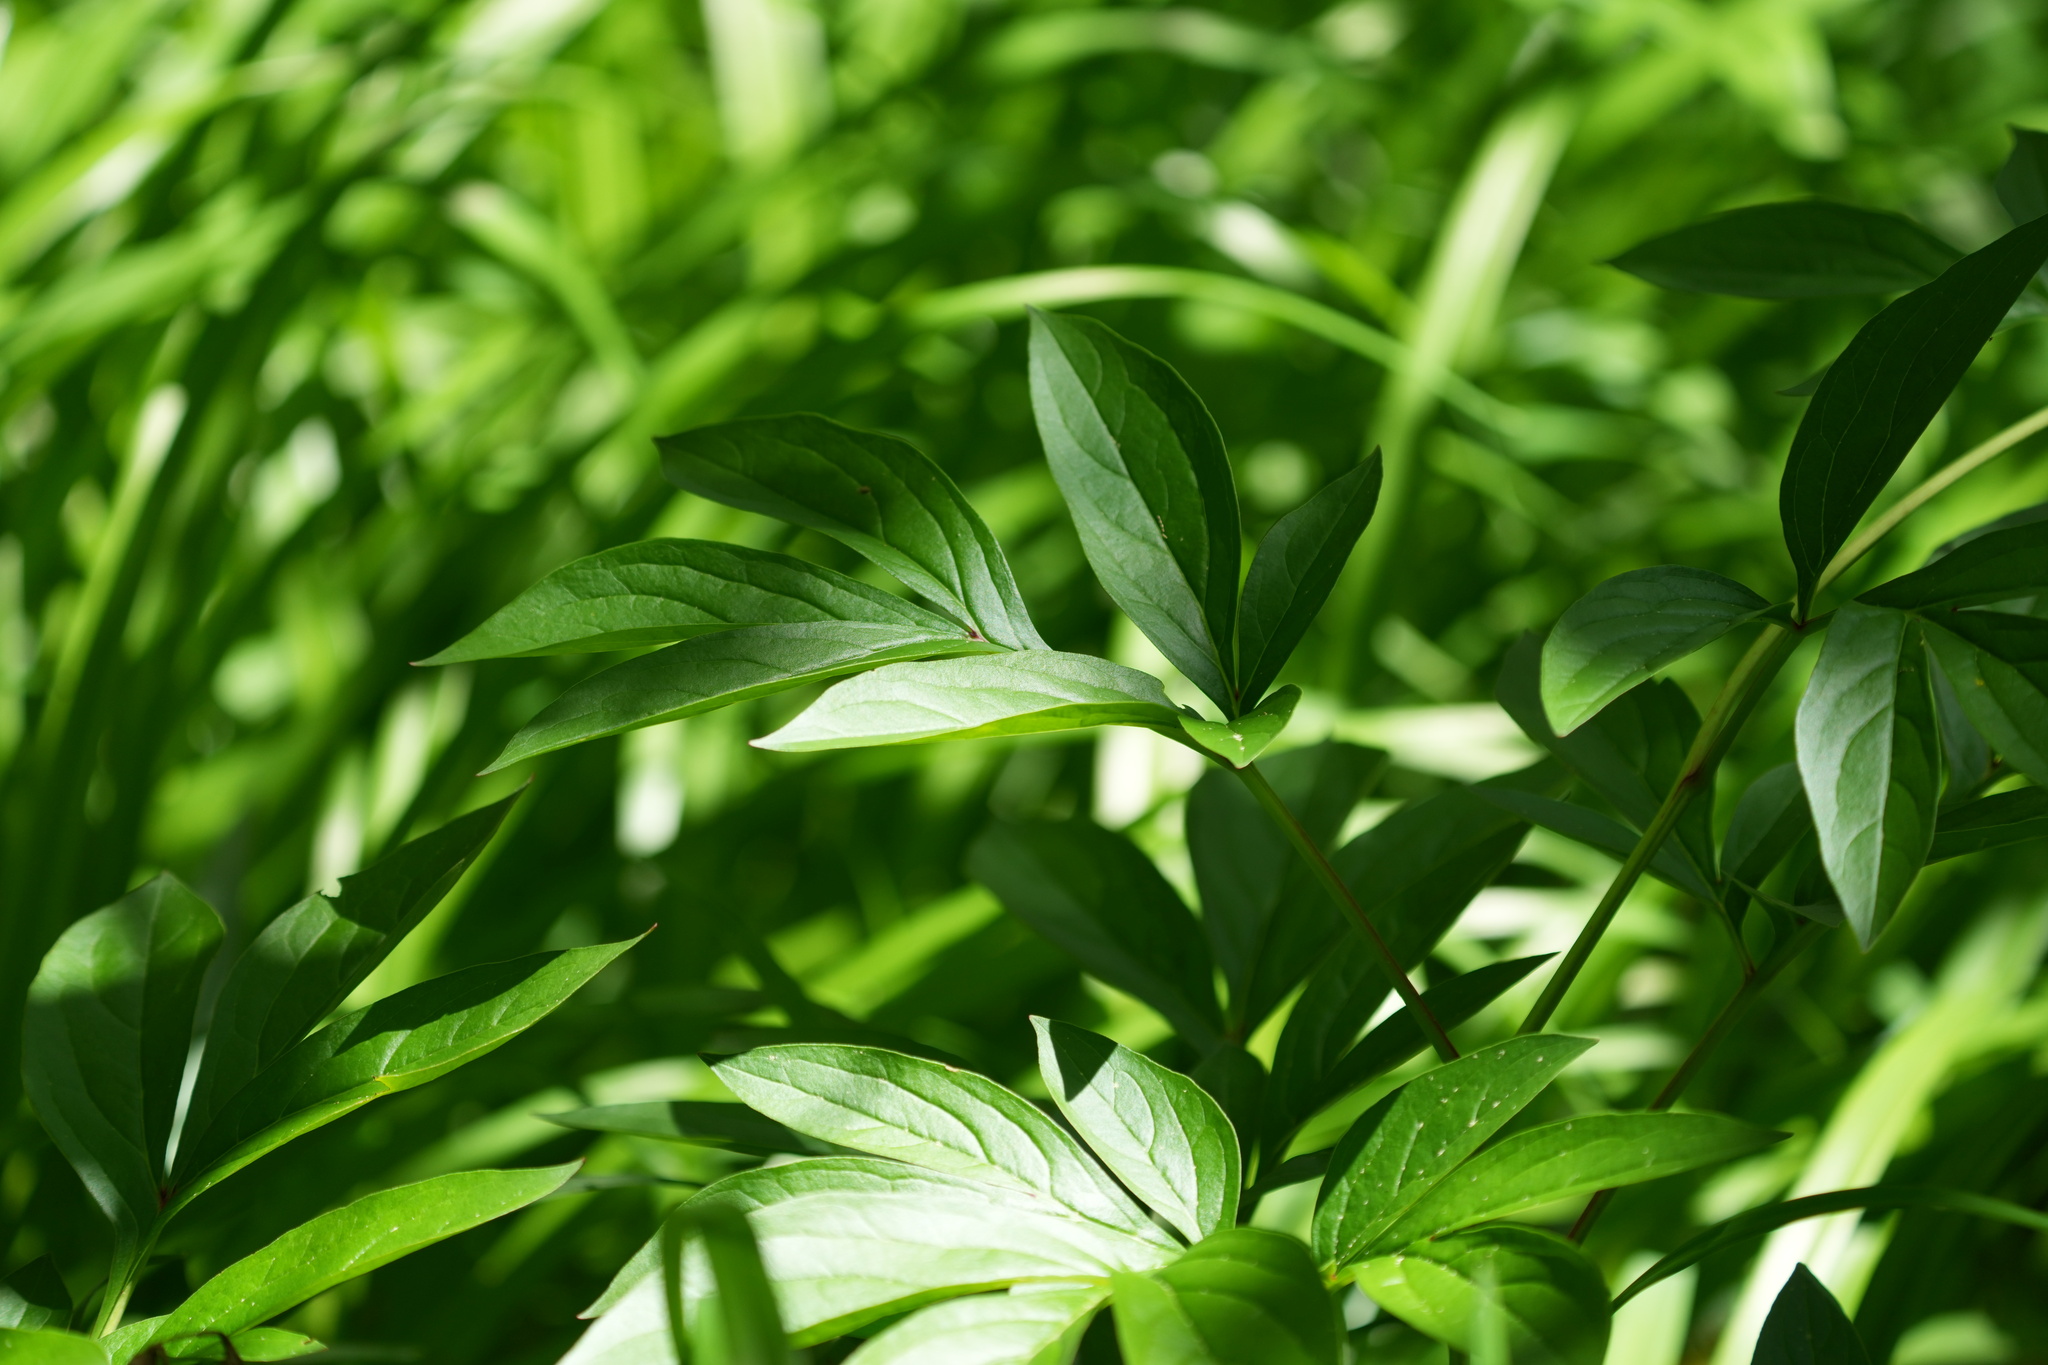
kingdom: Plantae
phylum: Tracheophyta
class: Magnoliopsida
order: Saxifragales
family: Paeoniaceae
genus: Paeonia
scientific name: Paeonia lactiflora
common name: Chinese peony
